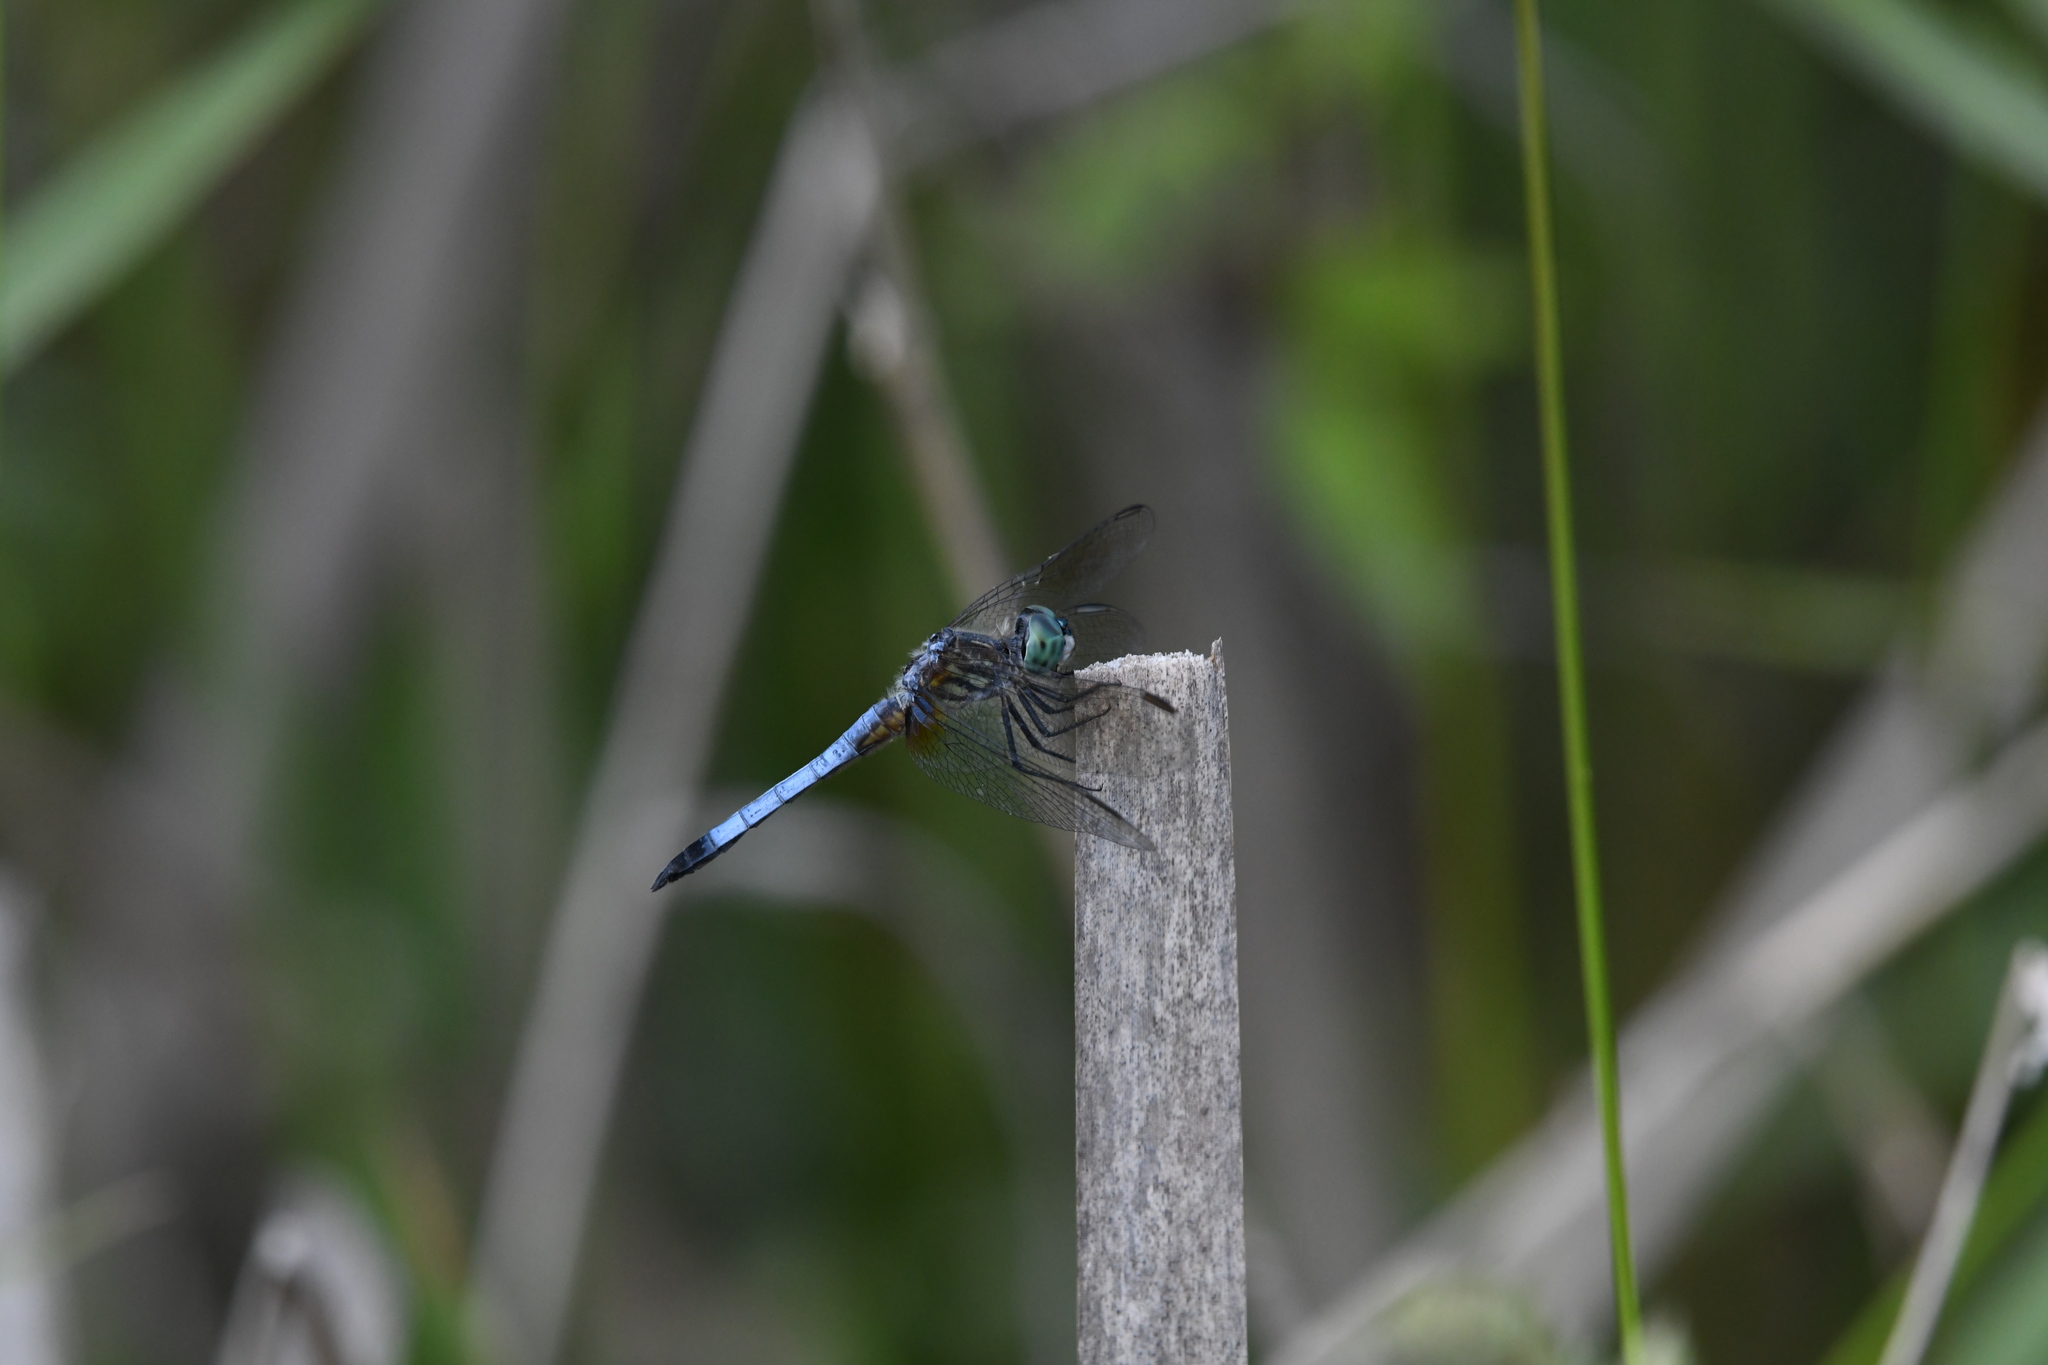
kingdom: Animalia
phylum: Arthropoda
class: Insecta
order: Odonata
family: Libellulidae
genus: Pachydiplax
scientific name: Pachydiplax longipennis
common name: Blue dasher
